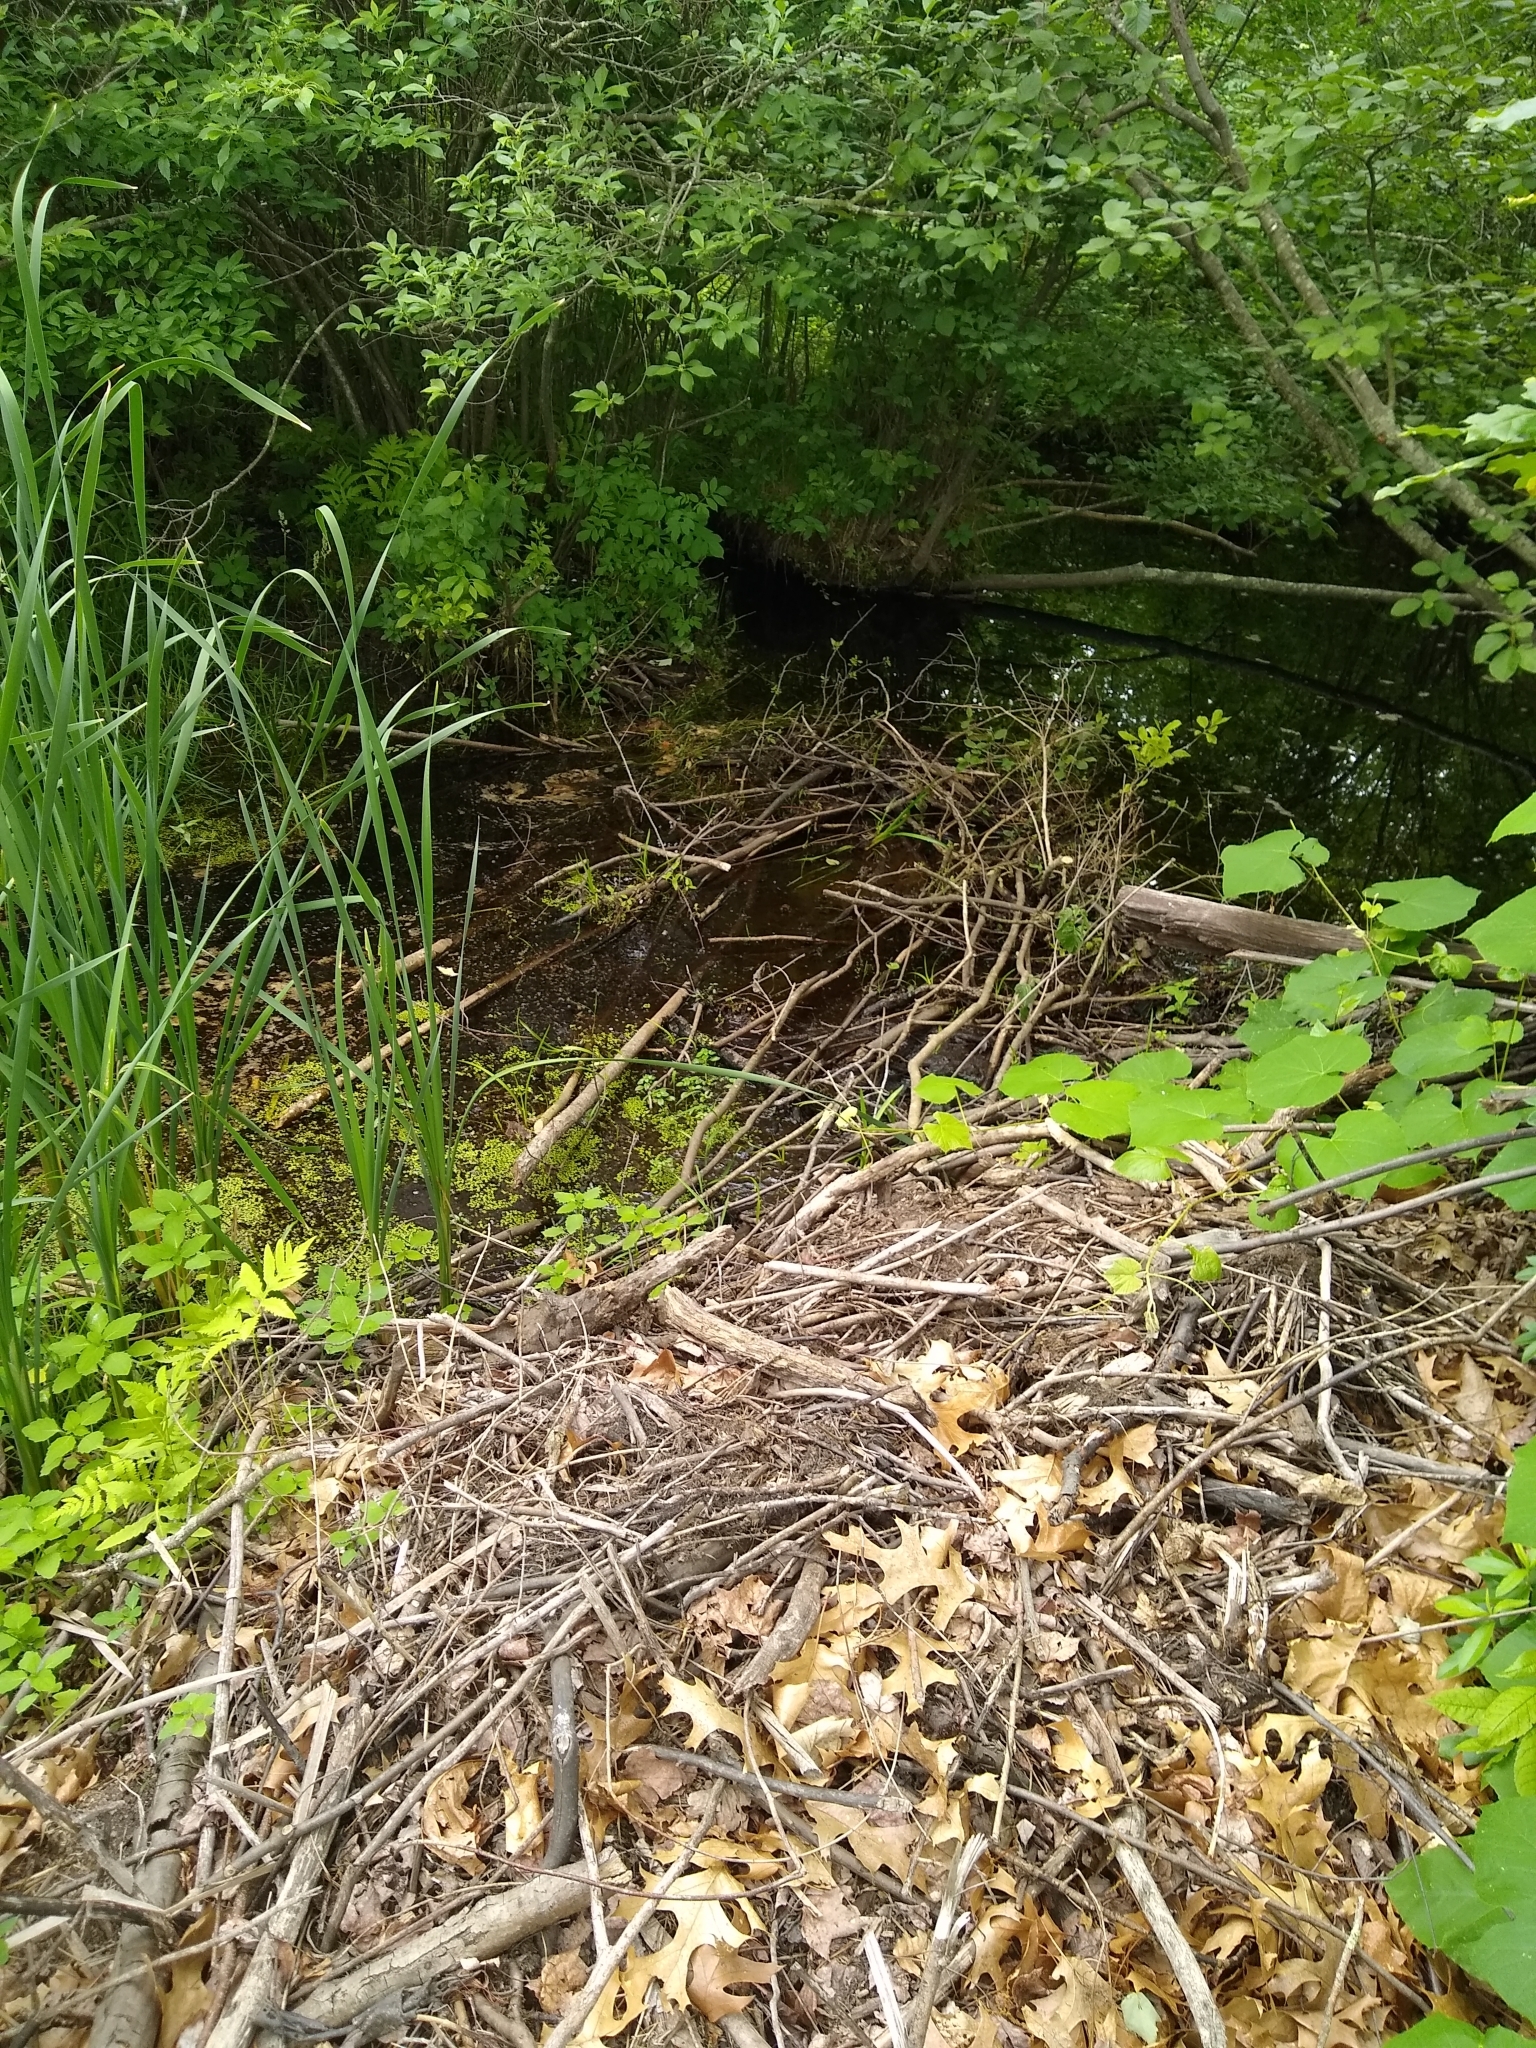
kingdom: Animalia
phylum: Chordata
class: Mammalia
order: Rodentia
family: Castoridae
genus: Castor
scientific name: Castor canadensis
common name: American beaver
